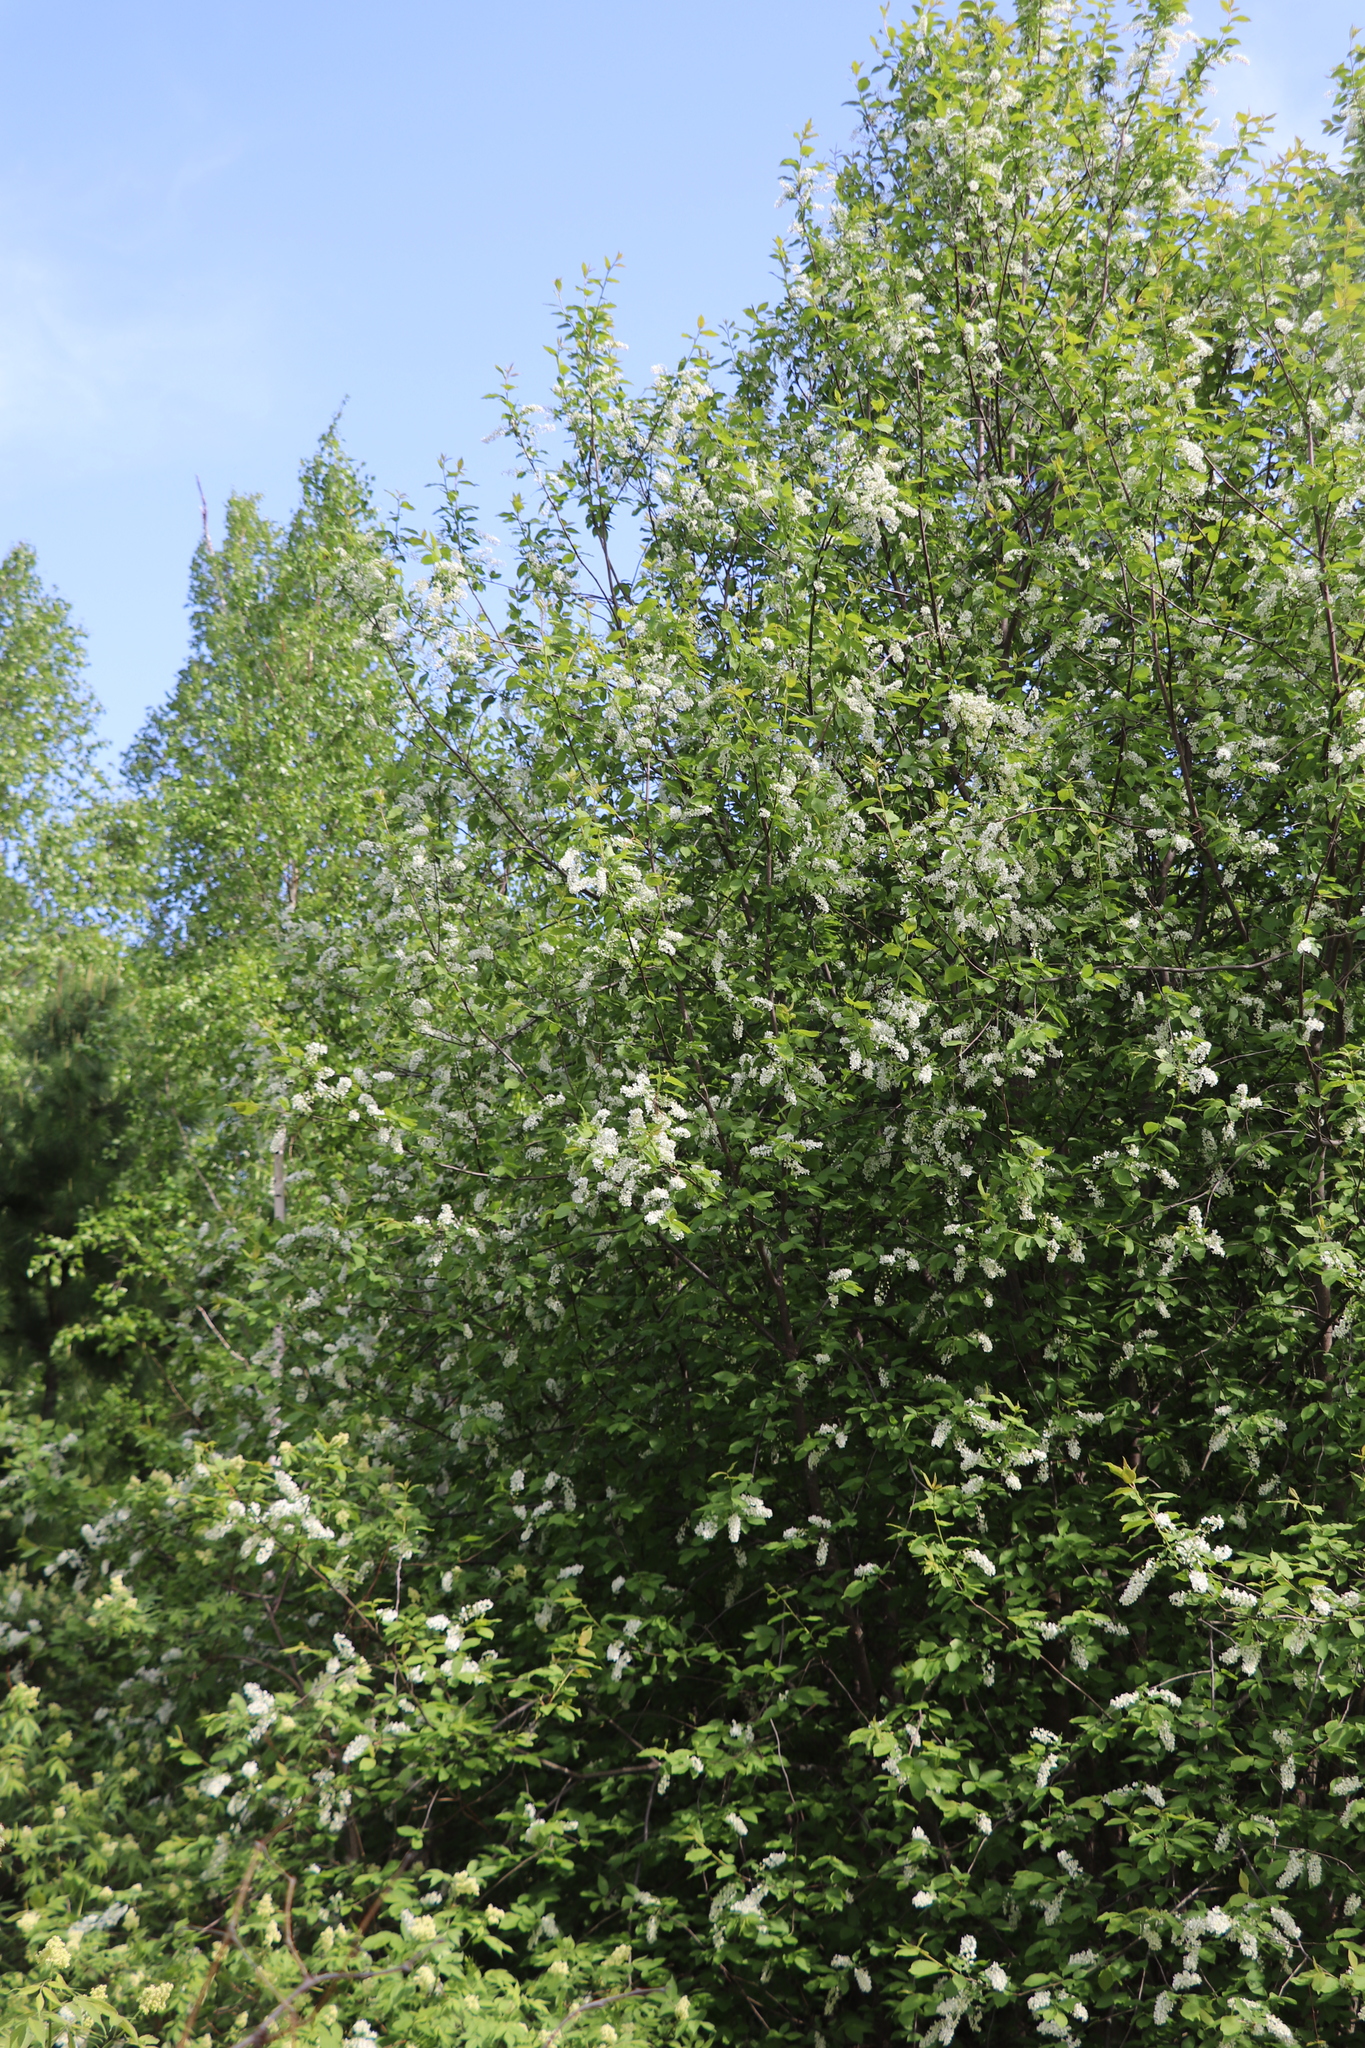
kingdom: Plantae
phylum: Tracheophyta
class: Magnoliopsida
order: Rosales
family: Rosaceae
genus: Prunus
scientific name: Prunus padus
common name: Bird cherry
